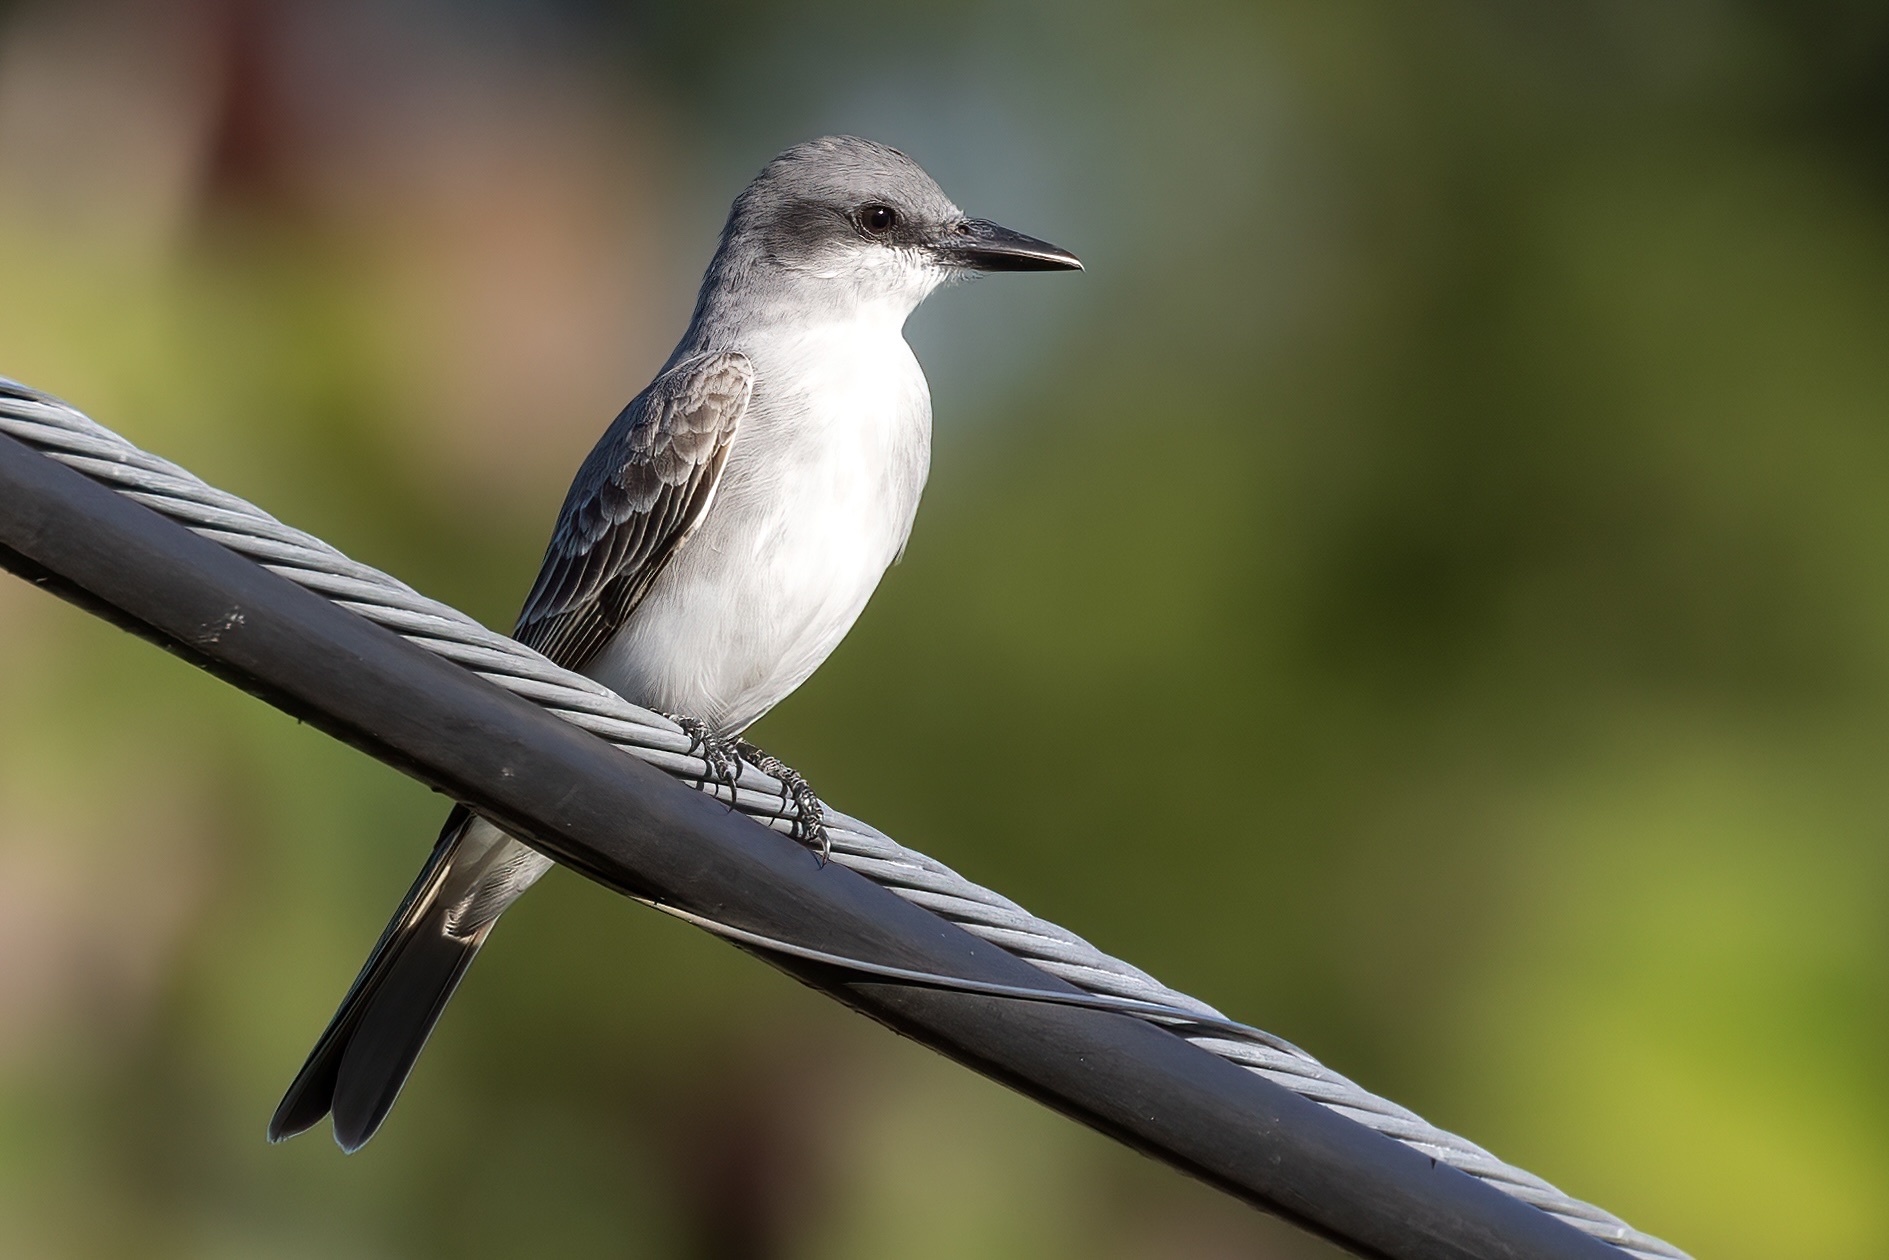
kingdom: Animalia
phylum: Chordata
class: Aves
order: Passeriformes
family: Tyrannidae
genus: Tyrannus
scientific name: Tyrannus dominicensis
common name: Gray kingbird
